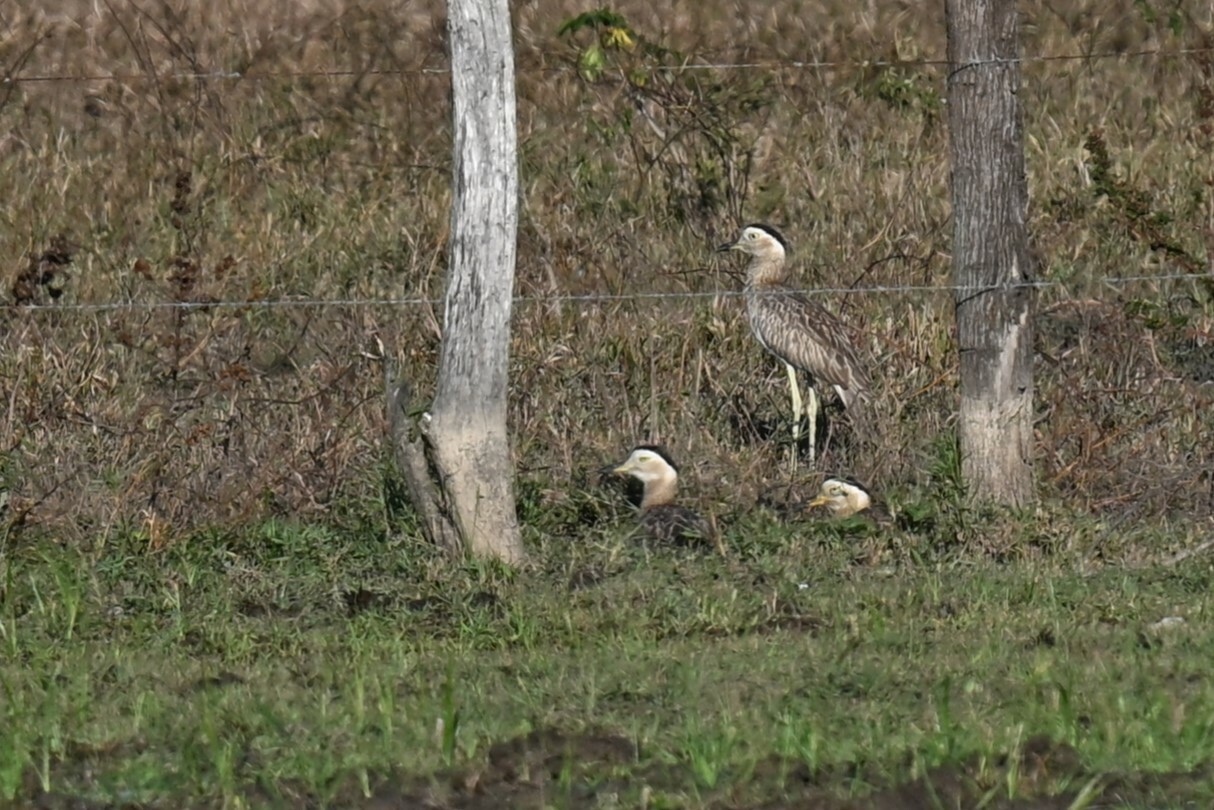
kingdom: Animalia
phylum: Chordata
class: Aves
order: Charadriiformes
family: Burhinidae
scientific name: Burhinidae
